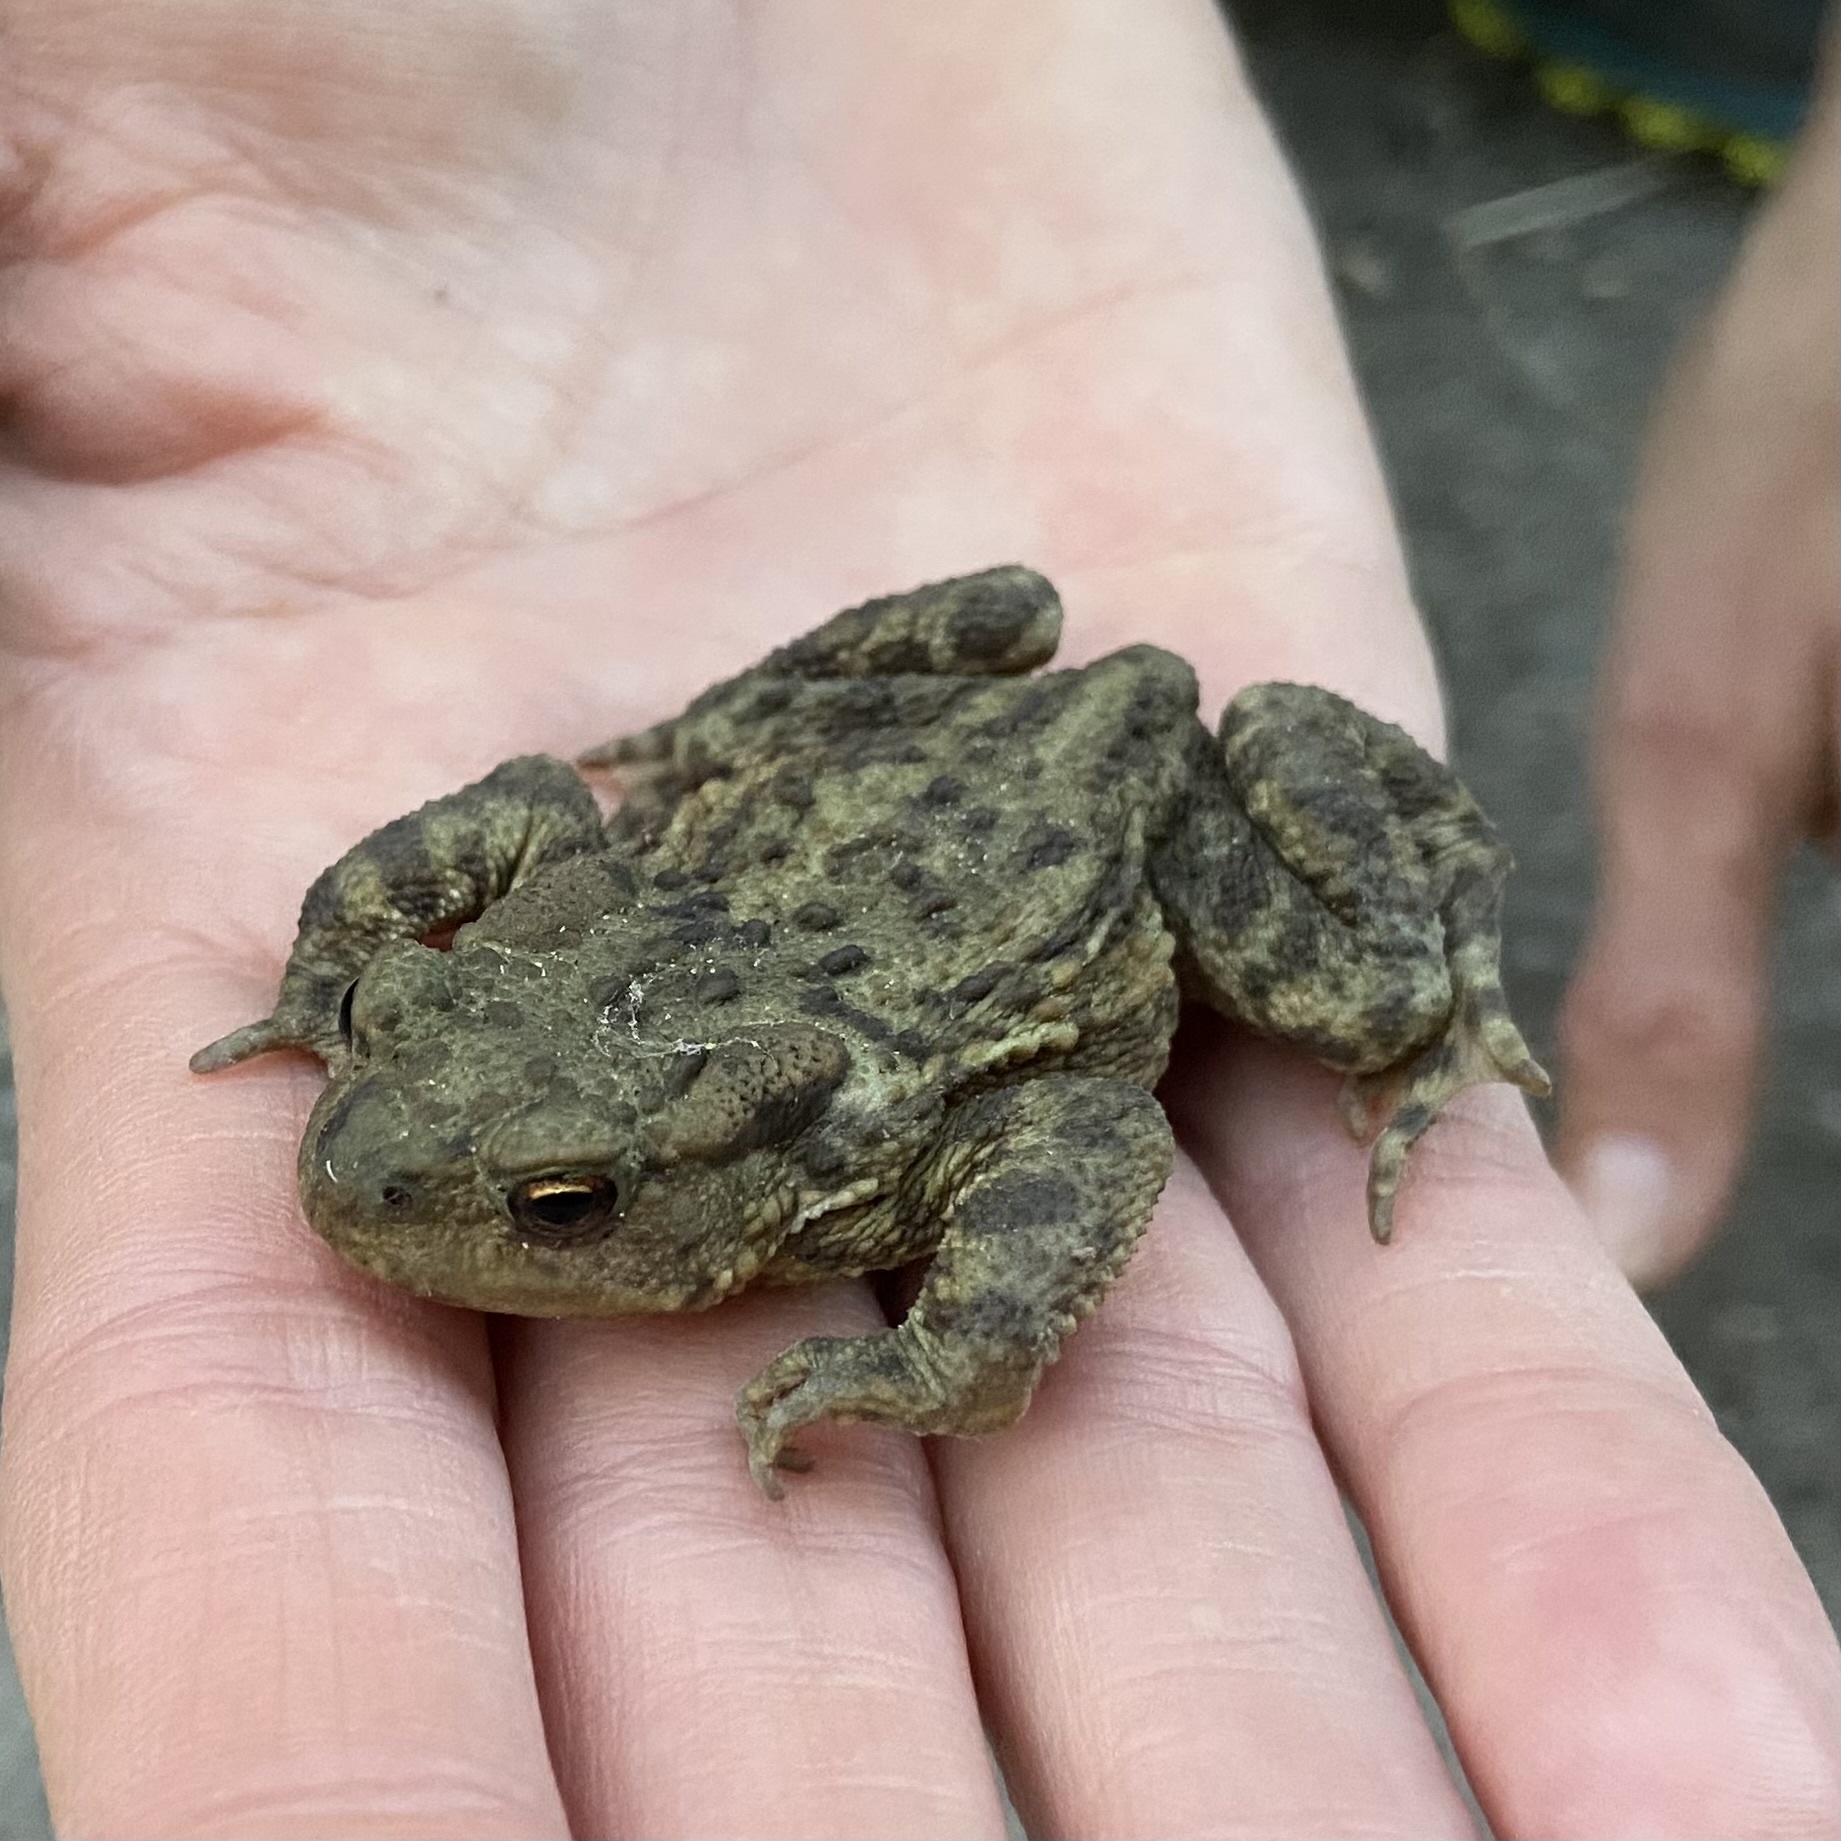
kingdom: Animalia
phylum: Chordata
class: Amphibia
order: Anura
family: Bufonidae
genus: Bufo
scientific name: Bufo bufo
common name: Common toad
